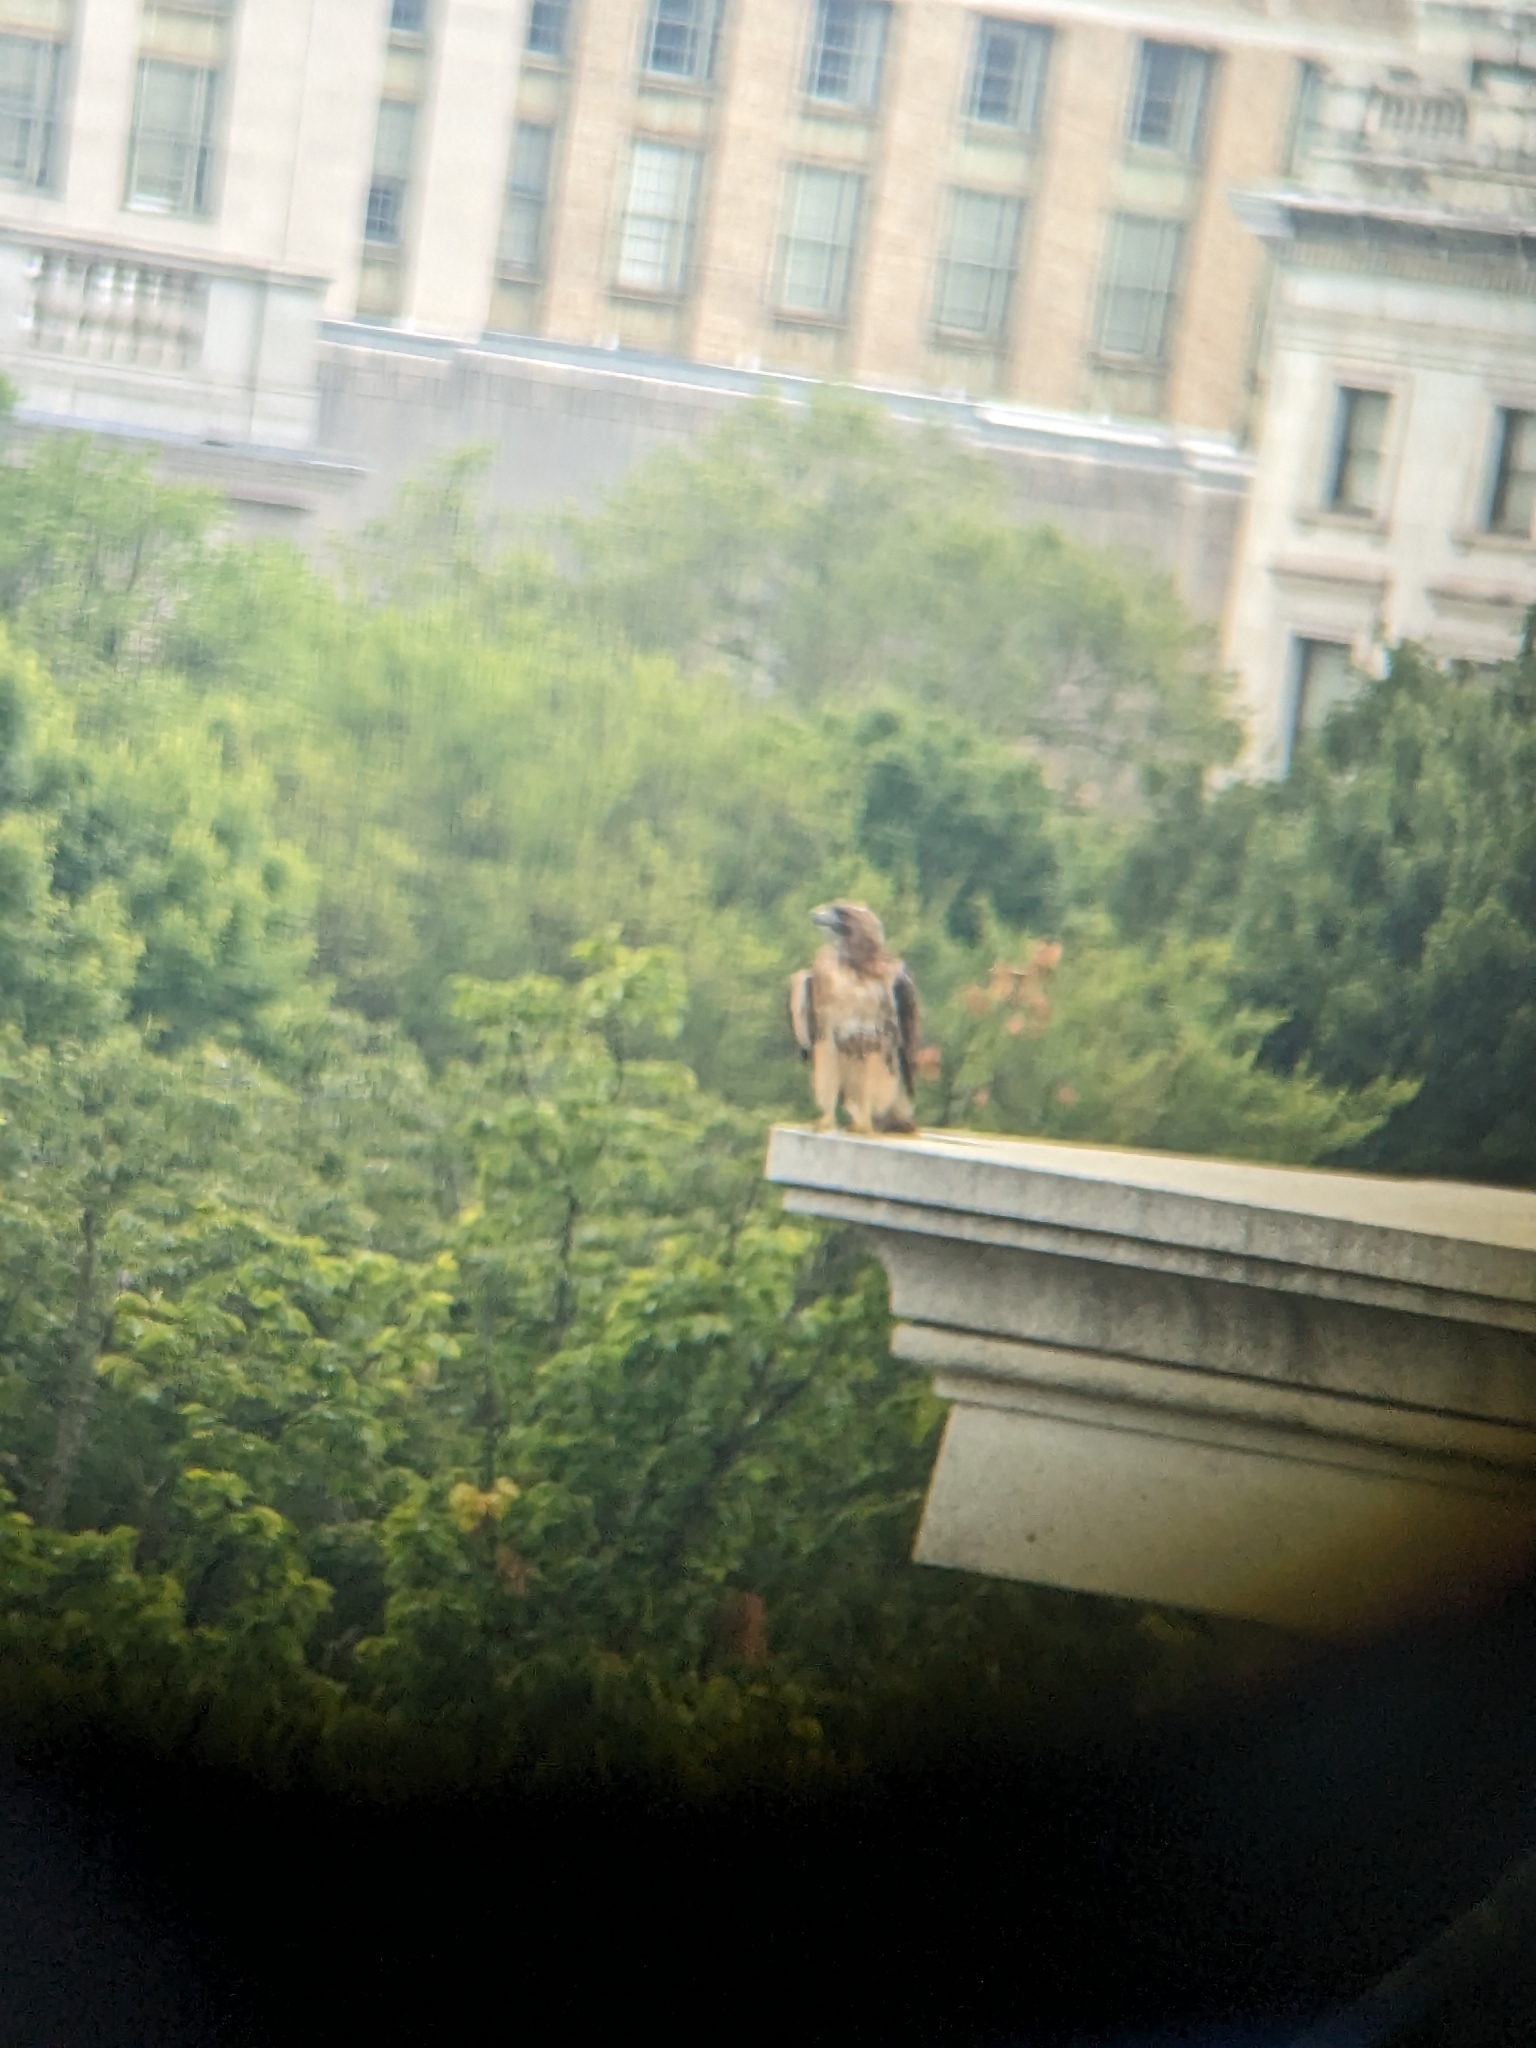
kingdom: Animalia
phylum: Chordata
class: Aves
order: Accipitriformes
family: Accipitridae
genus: Buteo
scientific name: Buteo jamaicensis
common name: Red-tailed hawk
